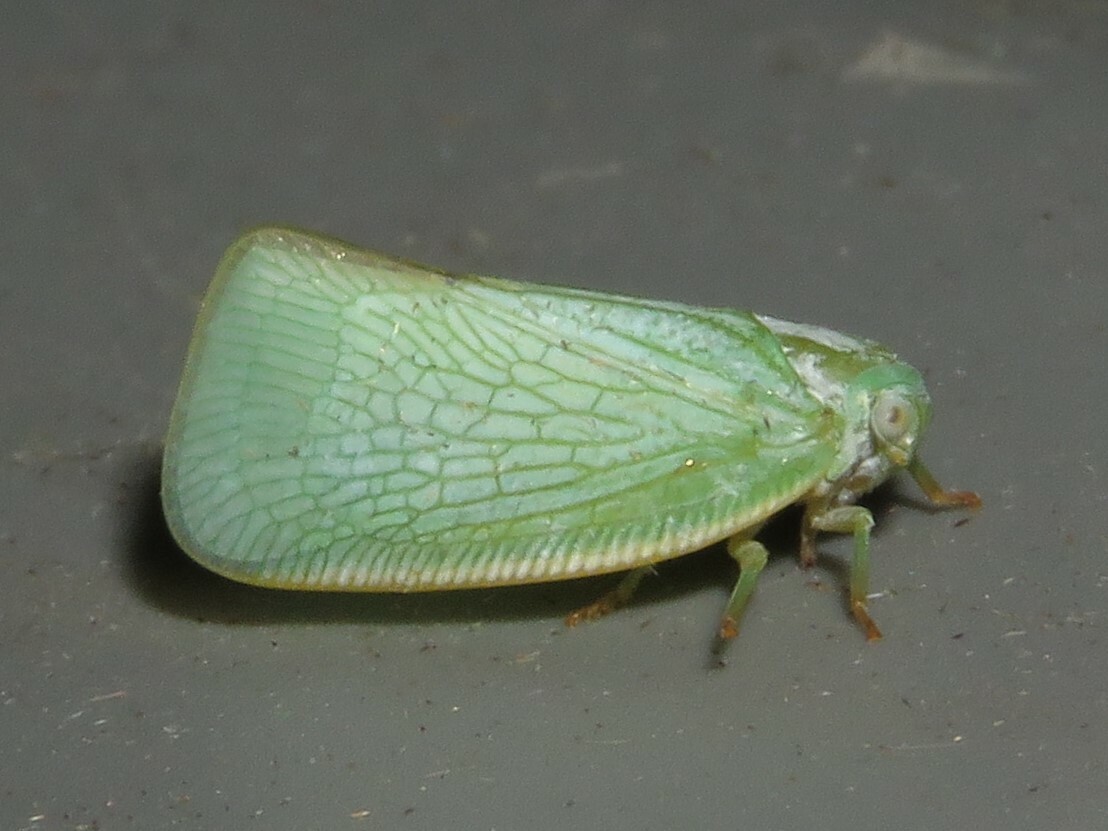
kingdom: Animalia
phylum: Arthropoda
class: Insecta
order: Hemiptera
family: Flatidae
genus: Flatormenis
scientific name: Flatormenis proxima
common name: Northern flatid planthopper
